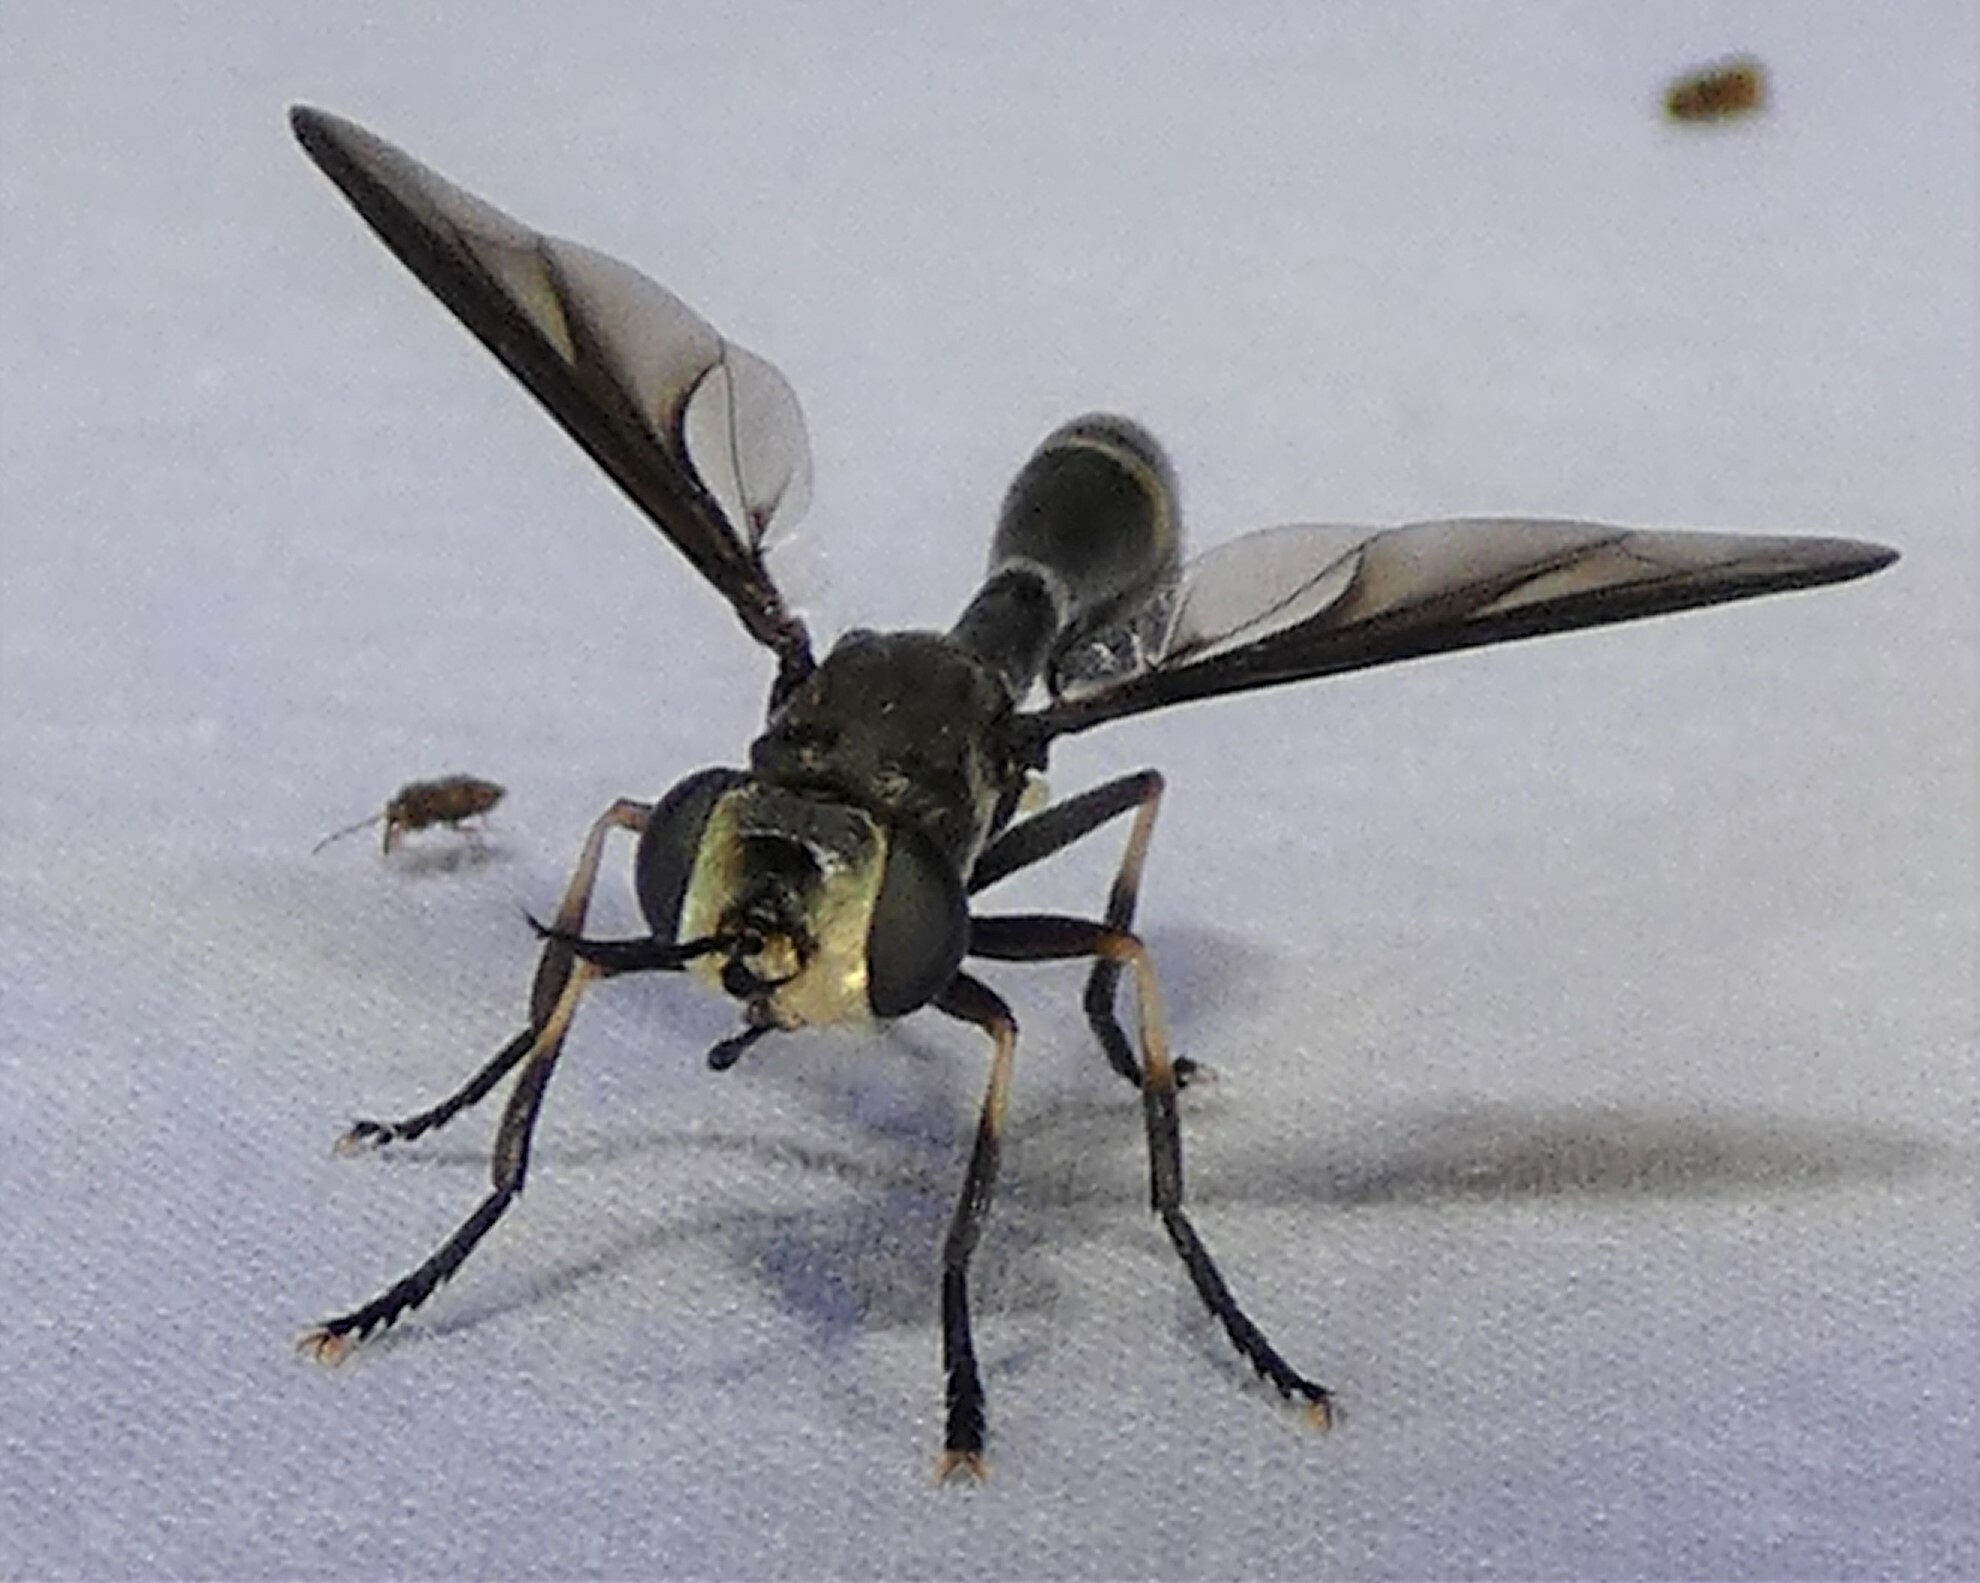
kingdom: Animalia
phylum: Arthropoda
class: Insecta
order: Diptera
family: Conopidae
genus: Physoconops
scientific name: Physoconops brachyrhynchus
